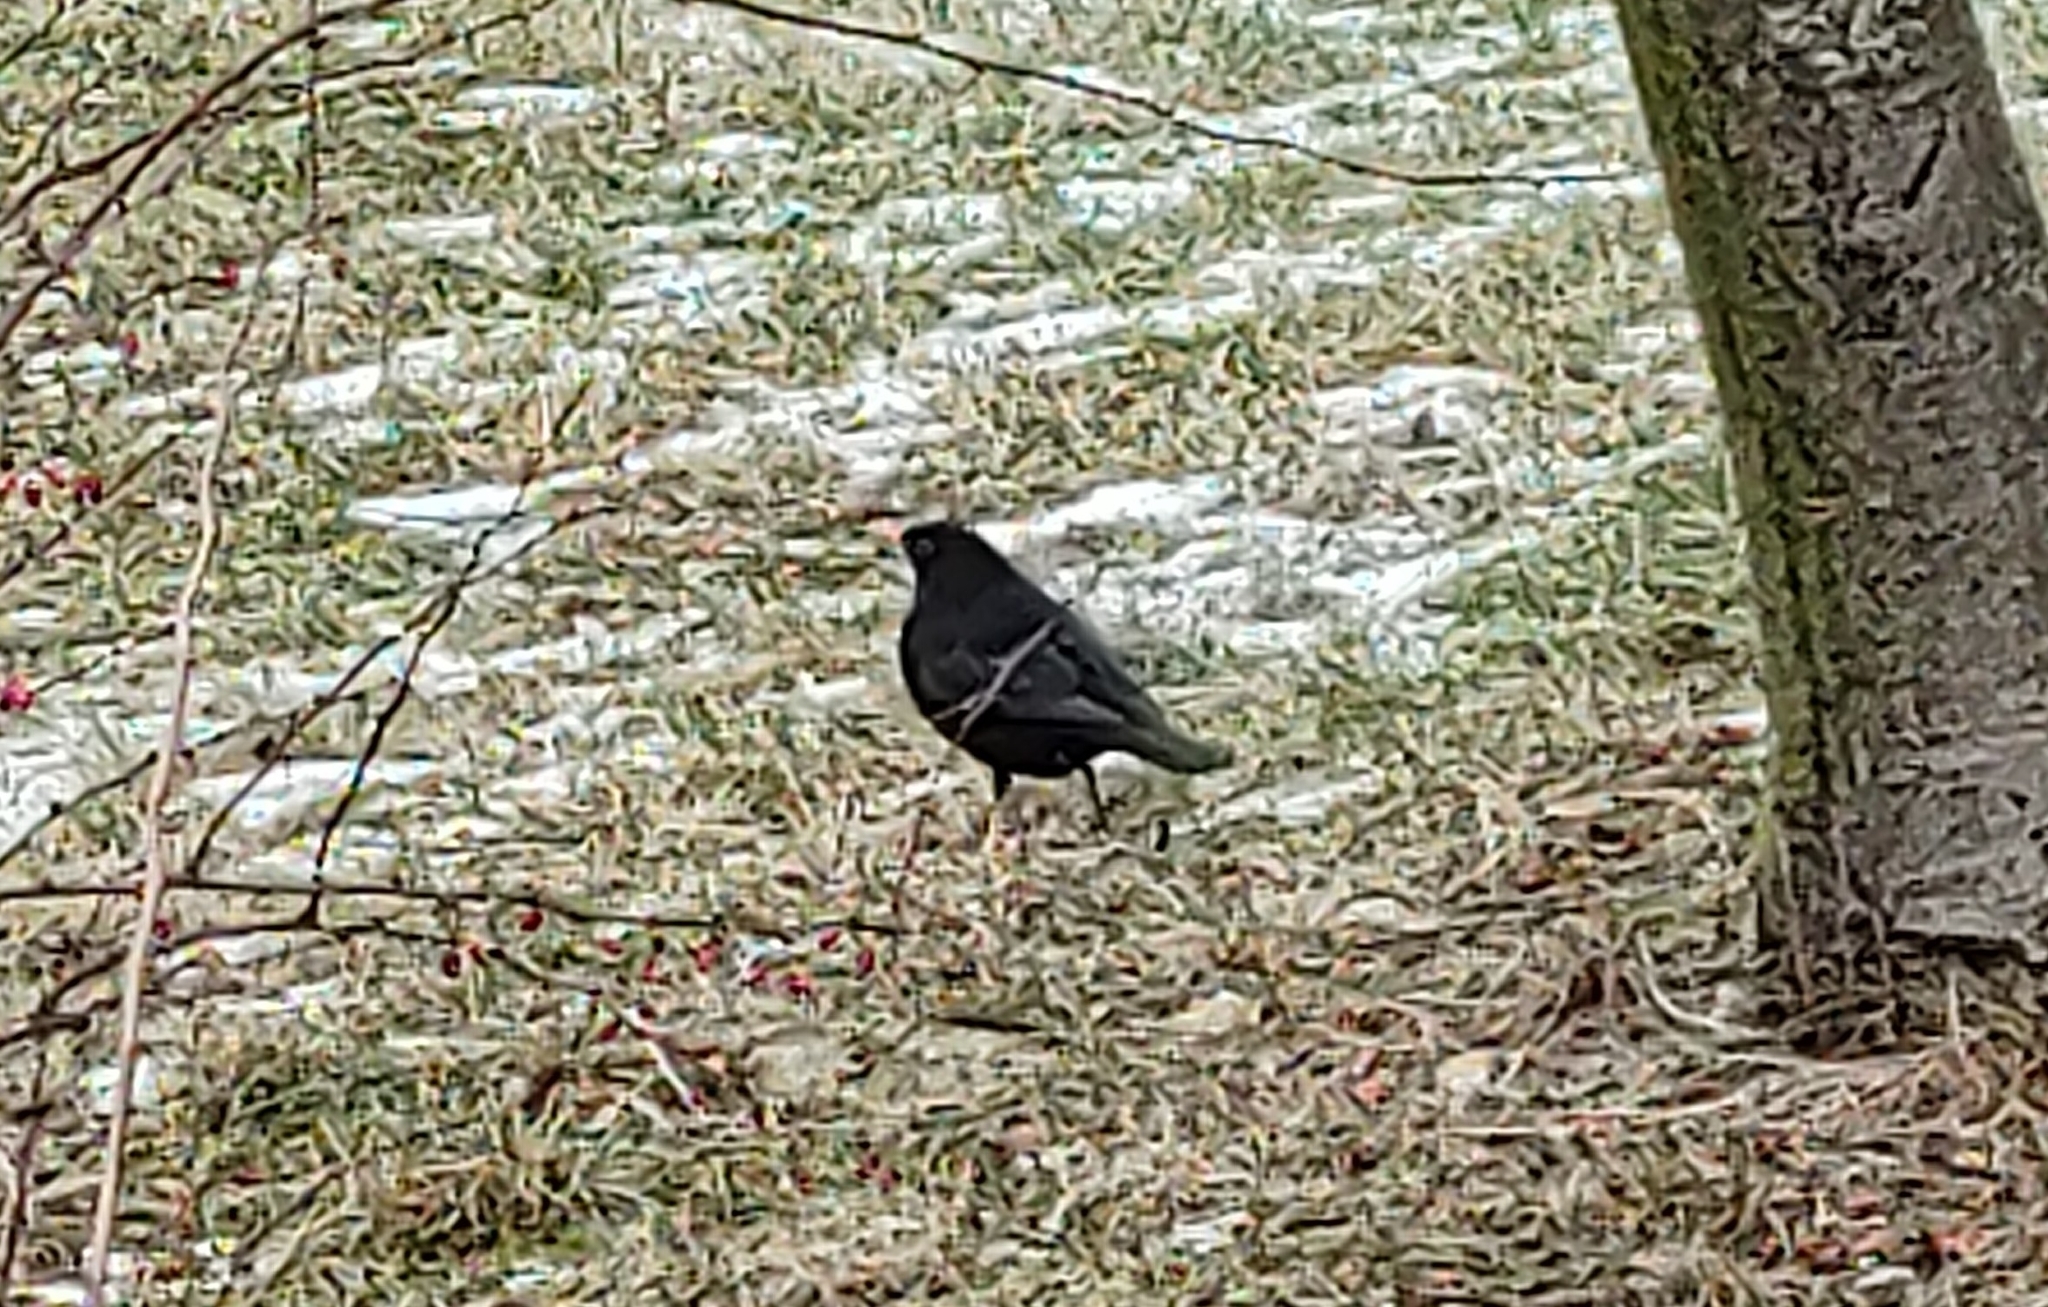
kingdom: Animalia
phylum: Chordata
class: Aves
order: Passeriformes
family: Turdidae
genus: Turdus
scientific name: Turdus merula
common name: Common blackbird
